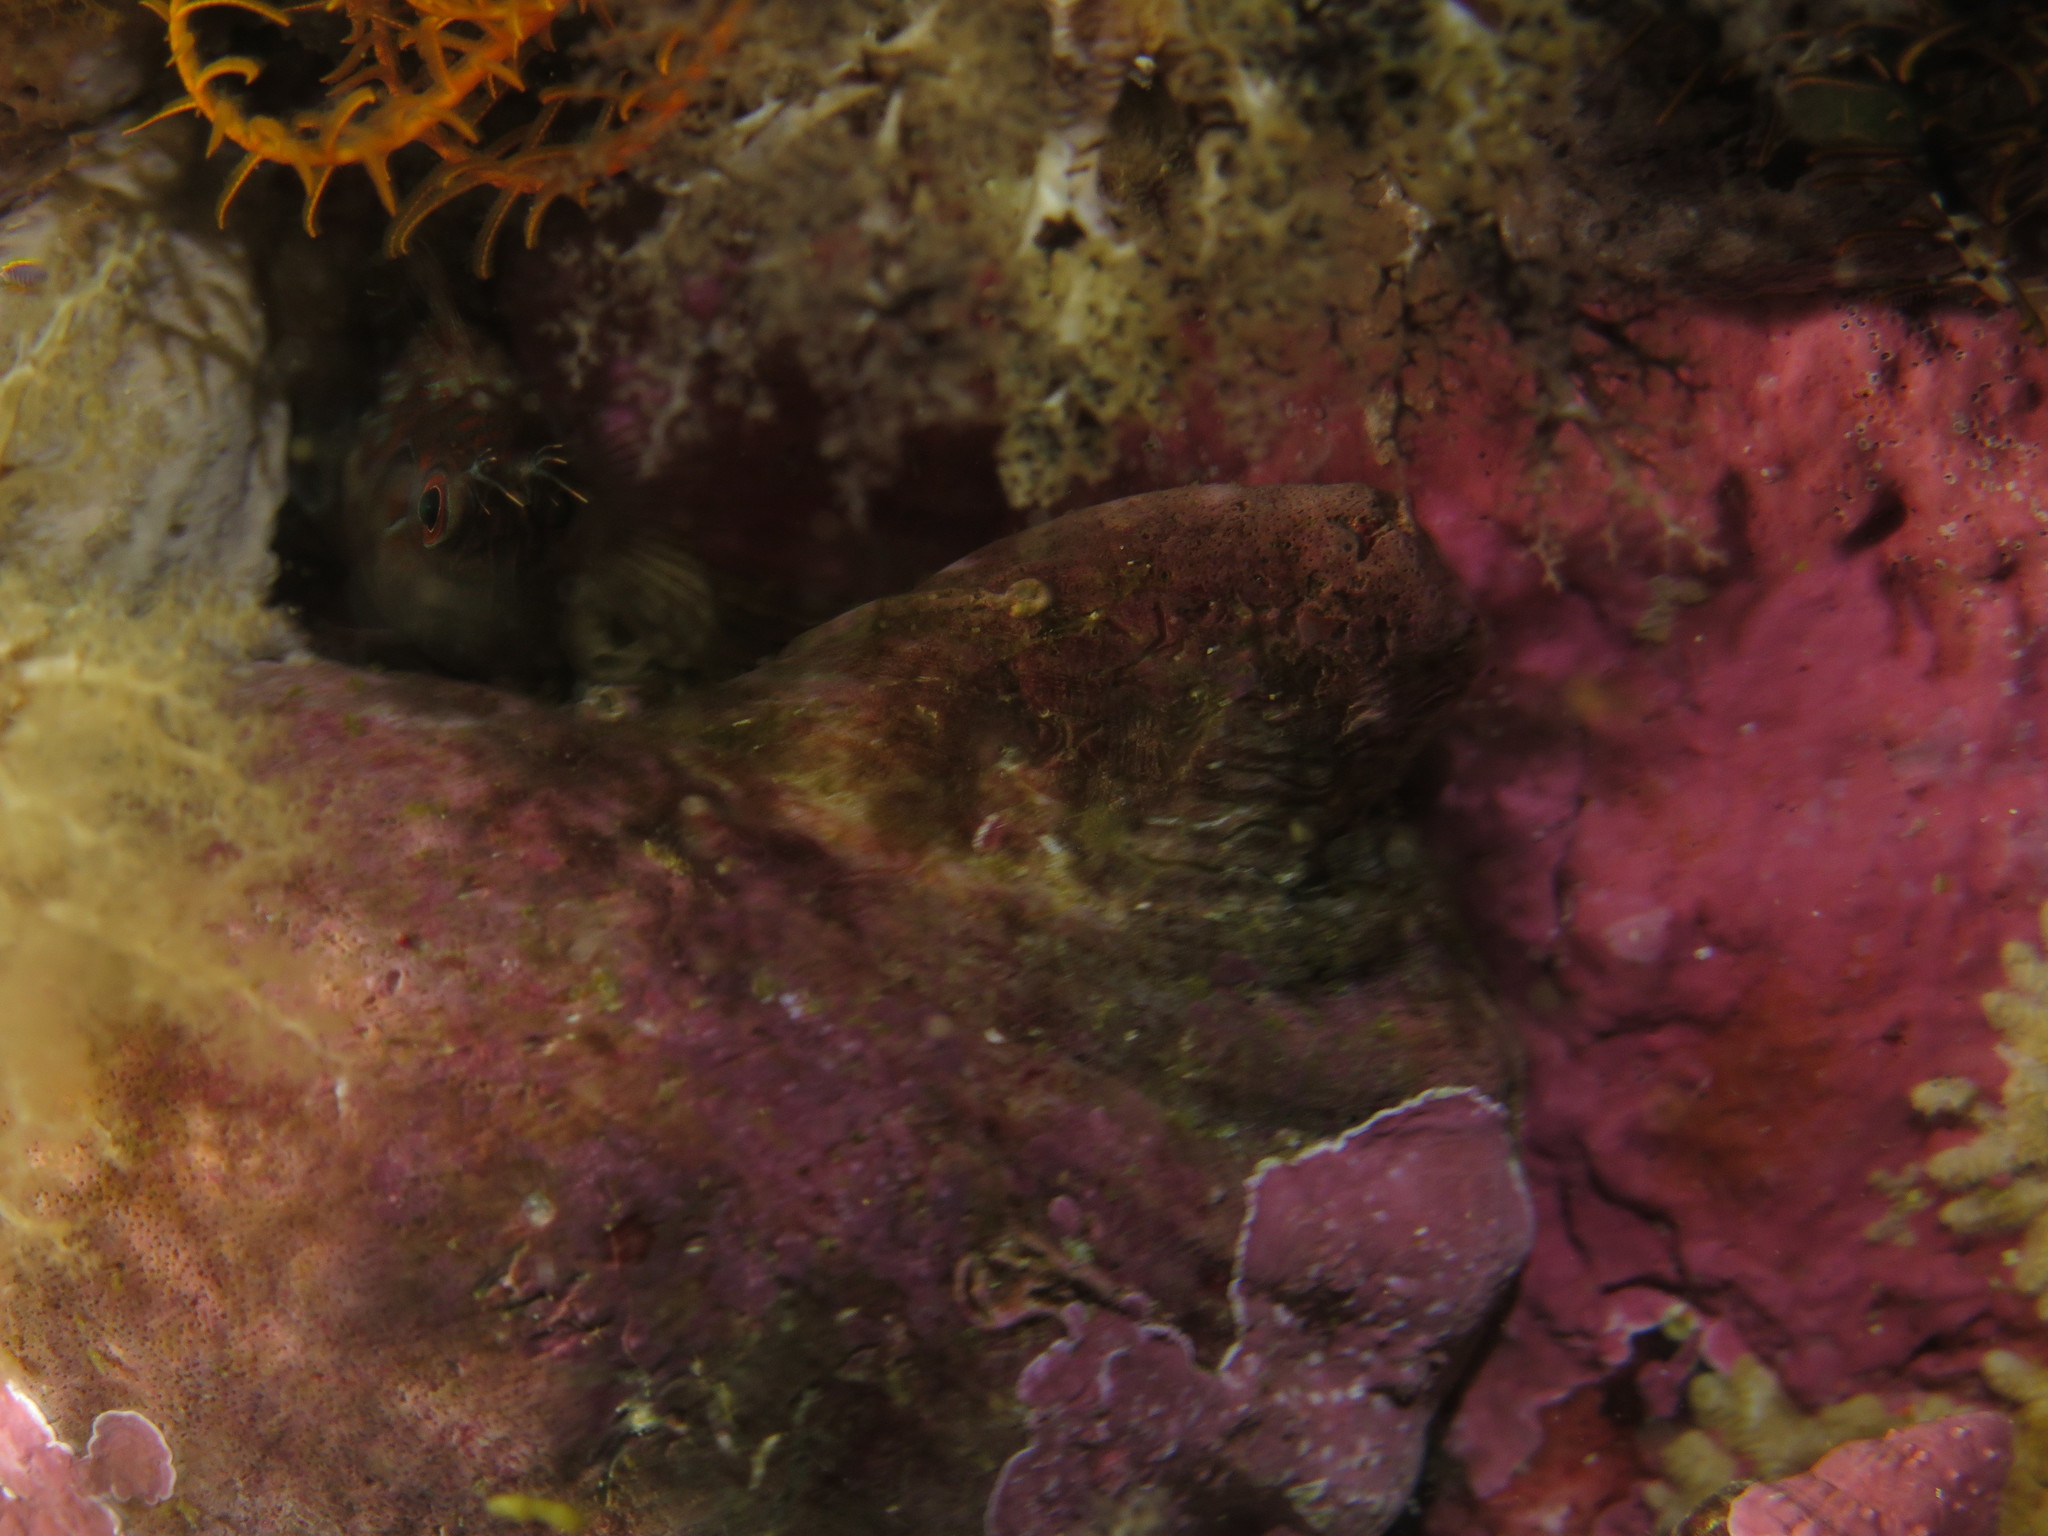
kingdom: Animalia
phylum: Chordata
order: Perciformes
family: Blenniidae
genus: Chalaroderma
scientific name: Chalaroderma ocellata
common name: Two-eyed blenny
